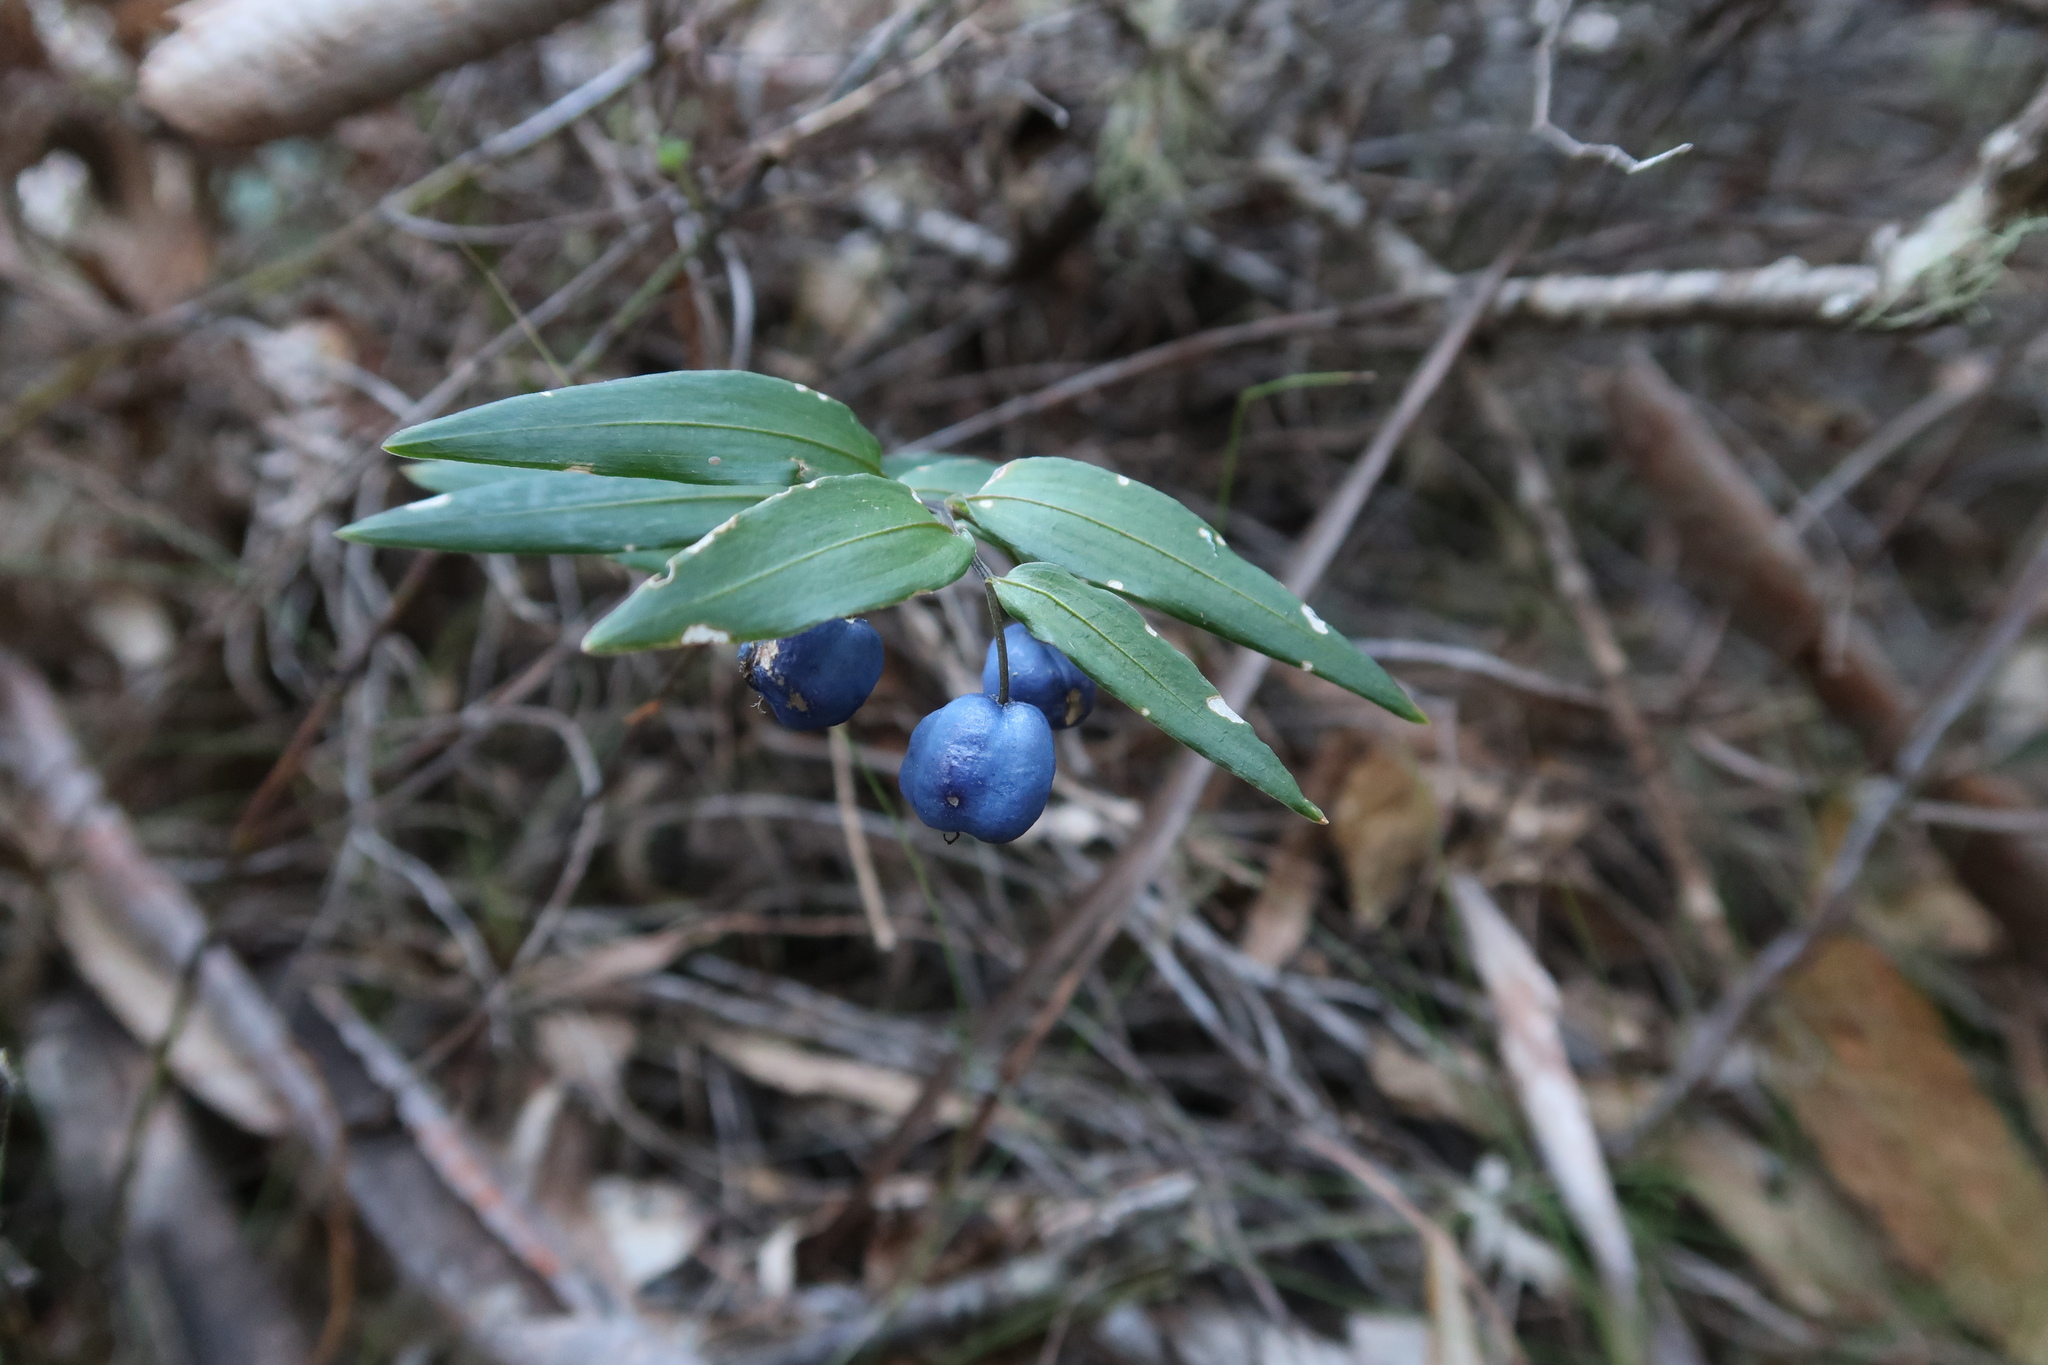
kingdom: Plantae
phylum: Tracheophyta
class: Liliopsida
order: Liliales
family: Alstroemeriaceae
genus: Drymophila
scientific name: Drymophila cyanocarpa
